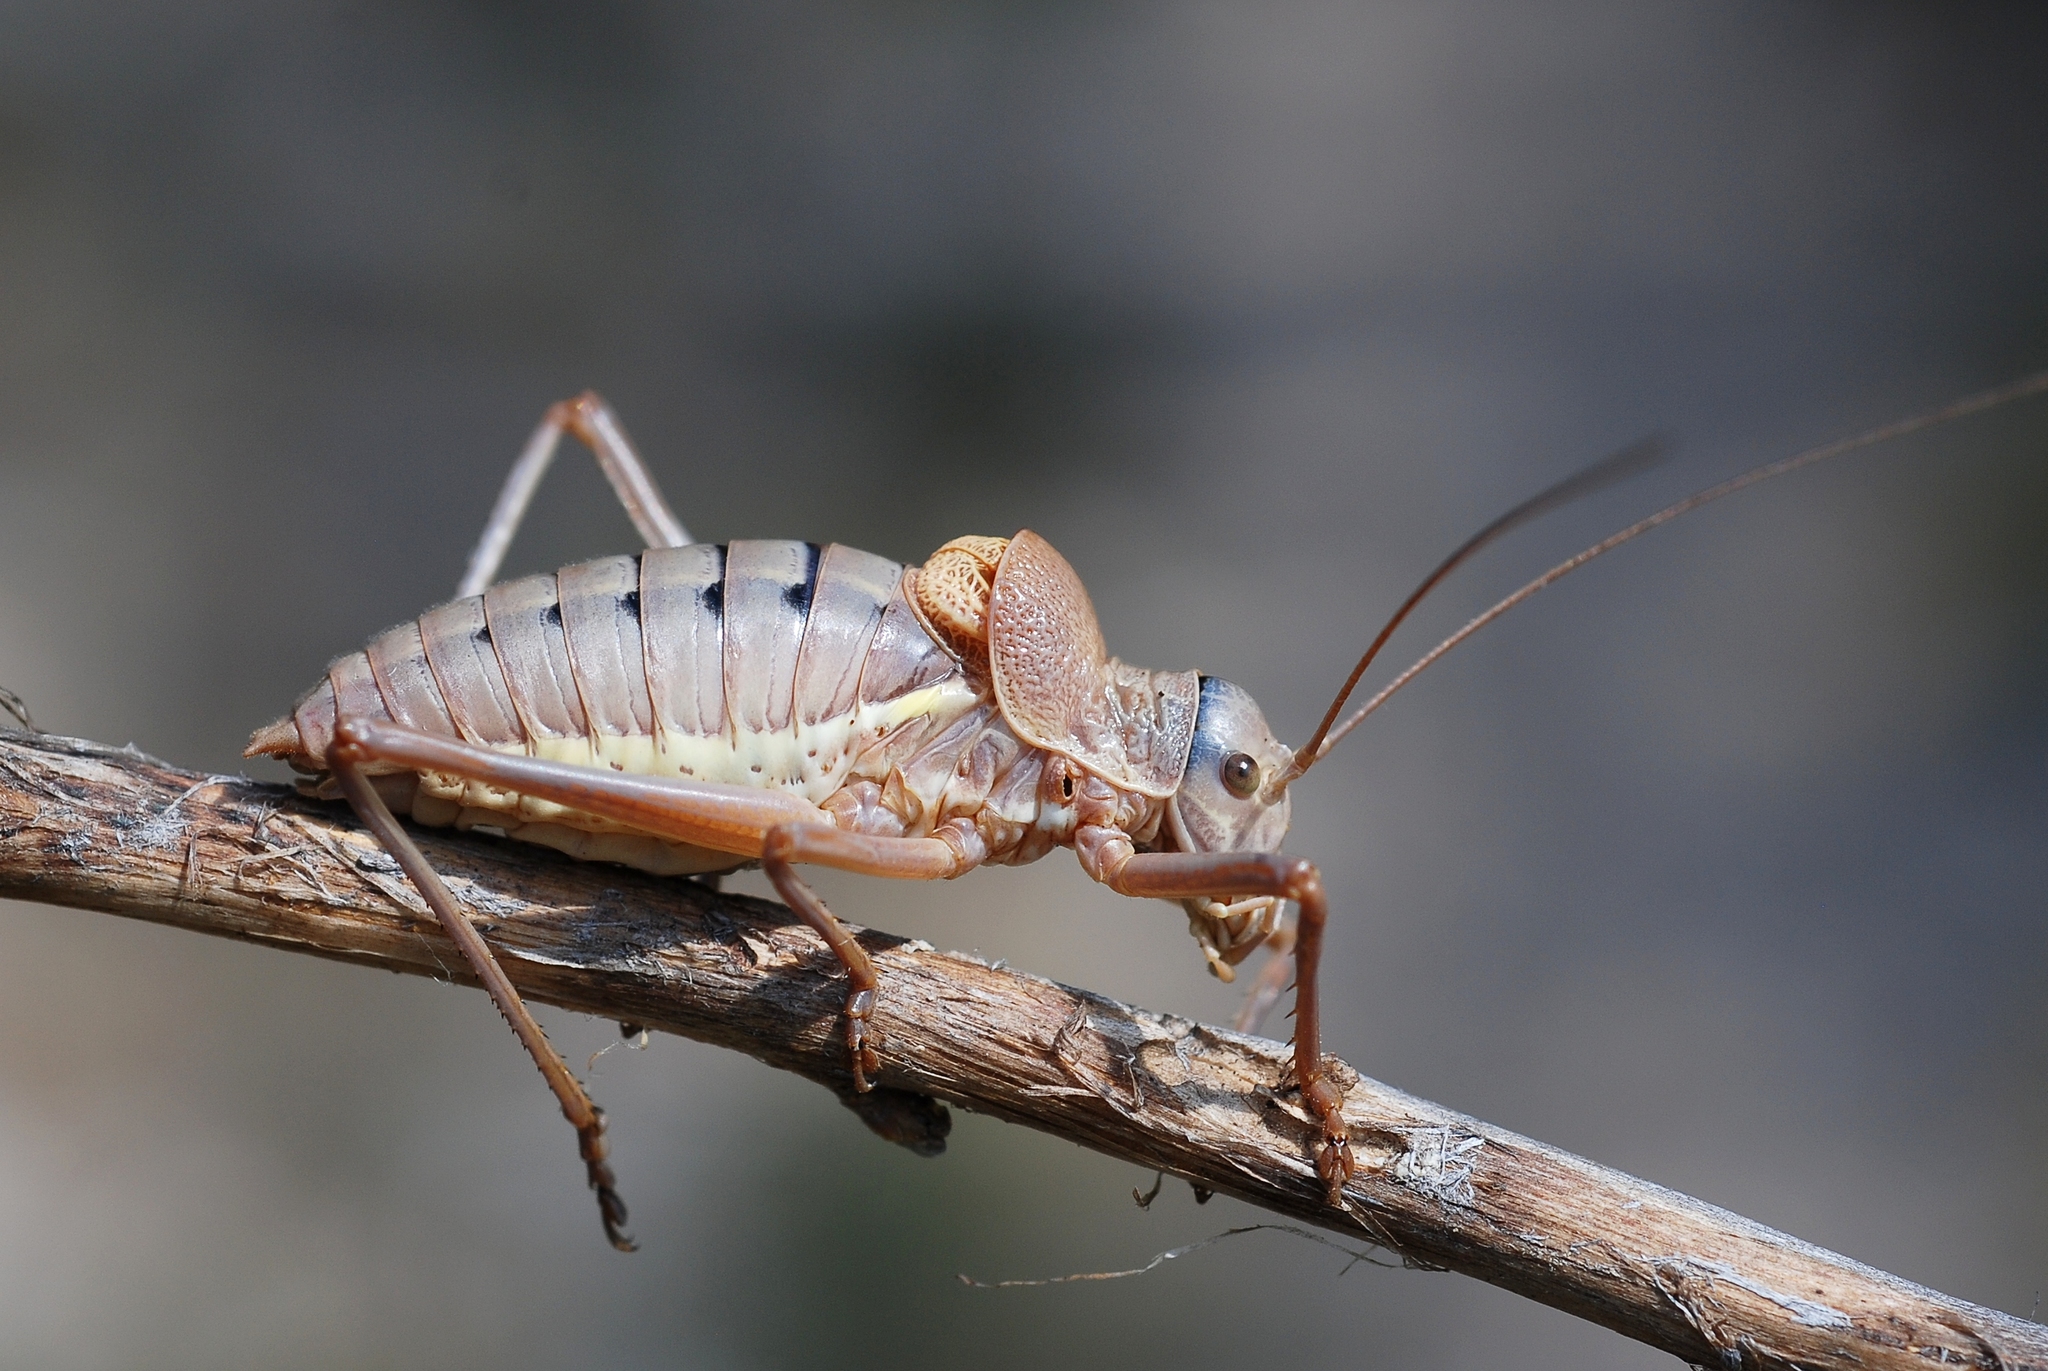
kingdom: Animalia
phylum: Arthropoda
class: Insecta
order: Orthoptera
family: Tettigoniidae
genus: Ephippiger
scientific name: Ephippiger terrestris
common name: Alpine saddle-backed bush-cricket
